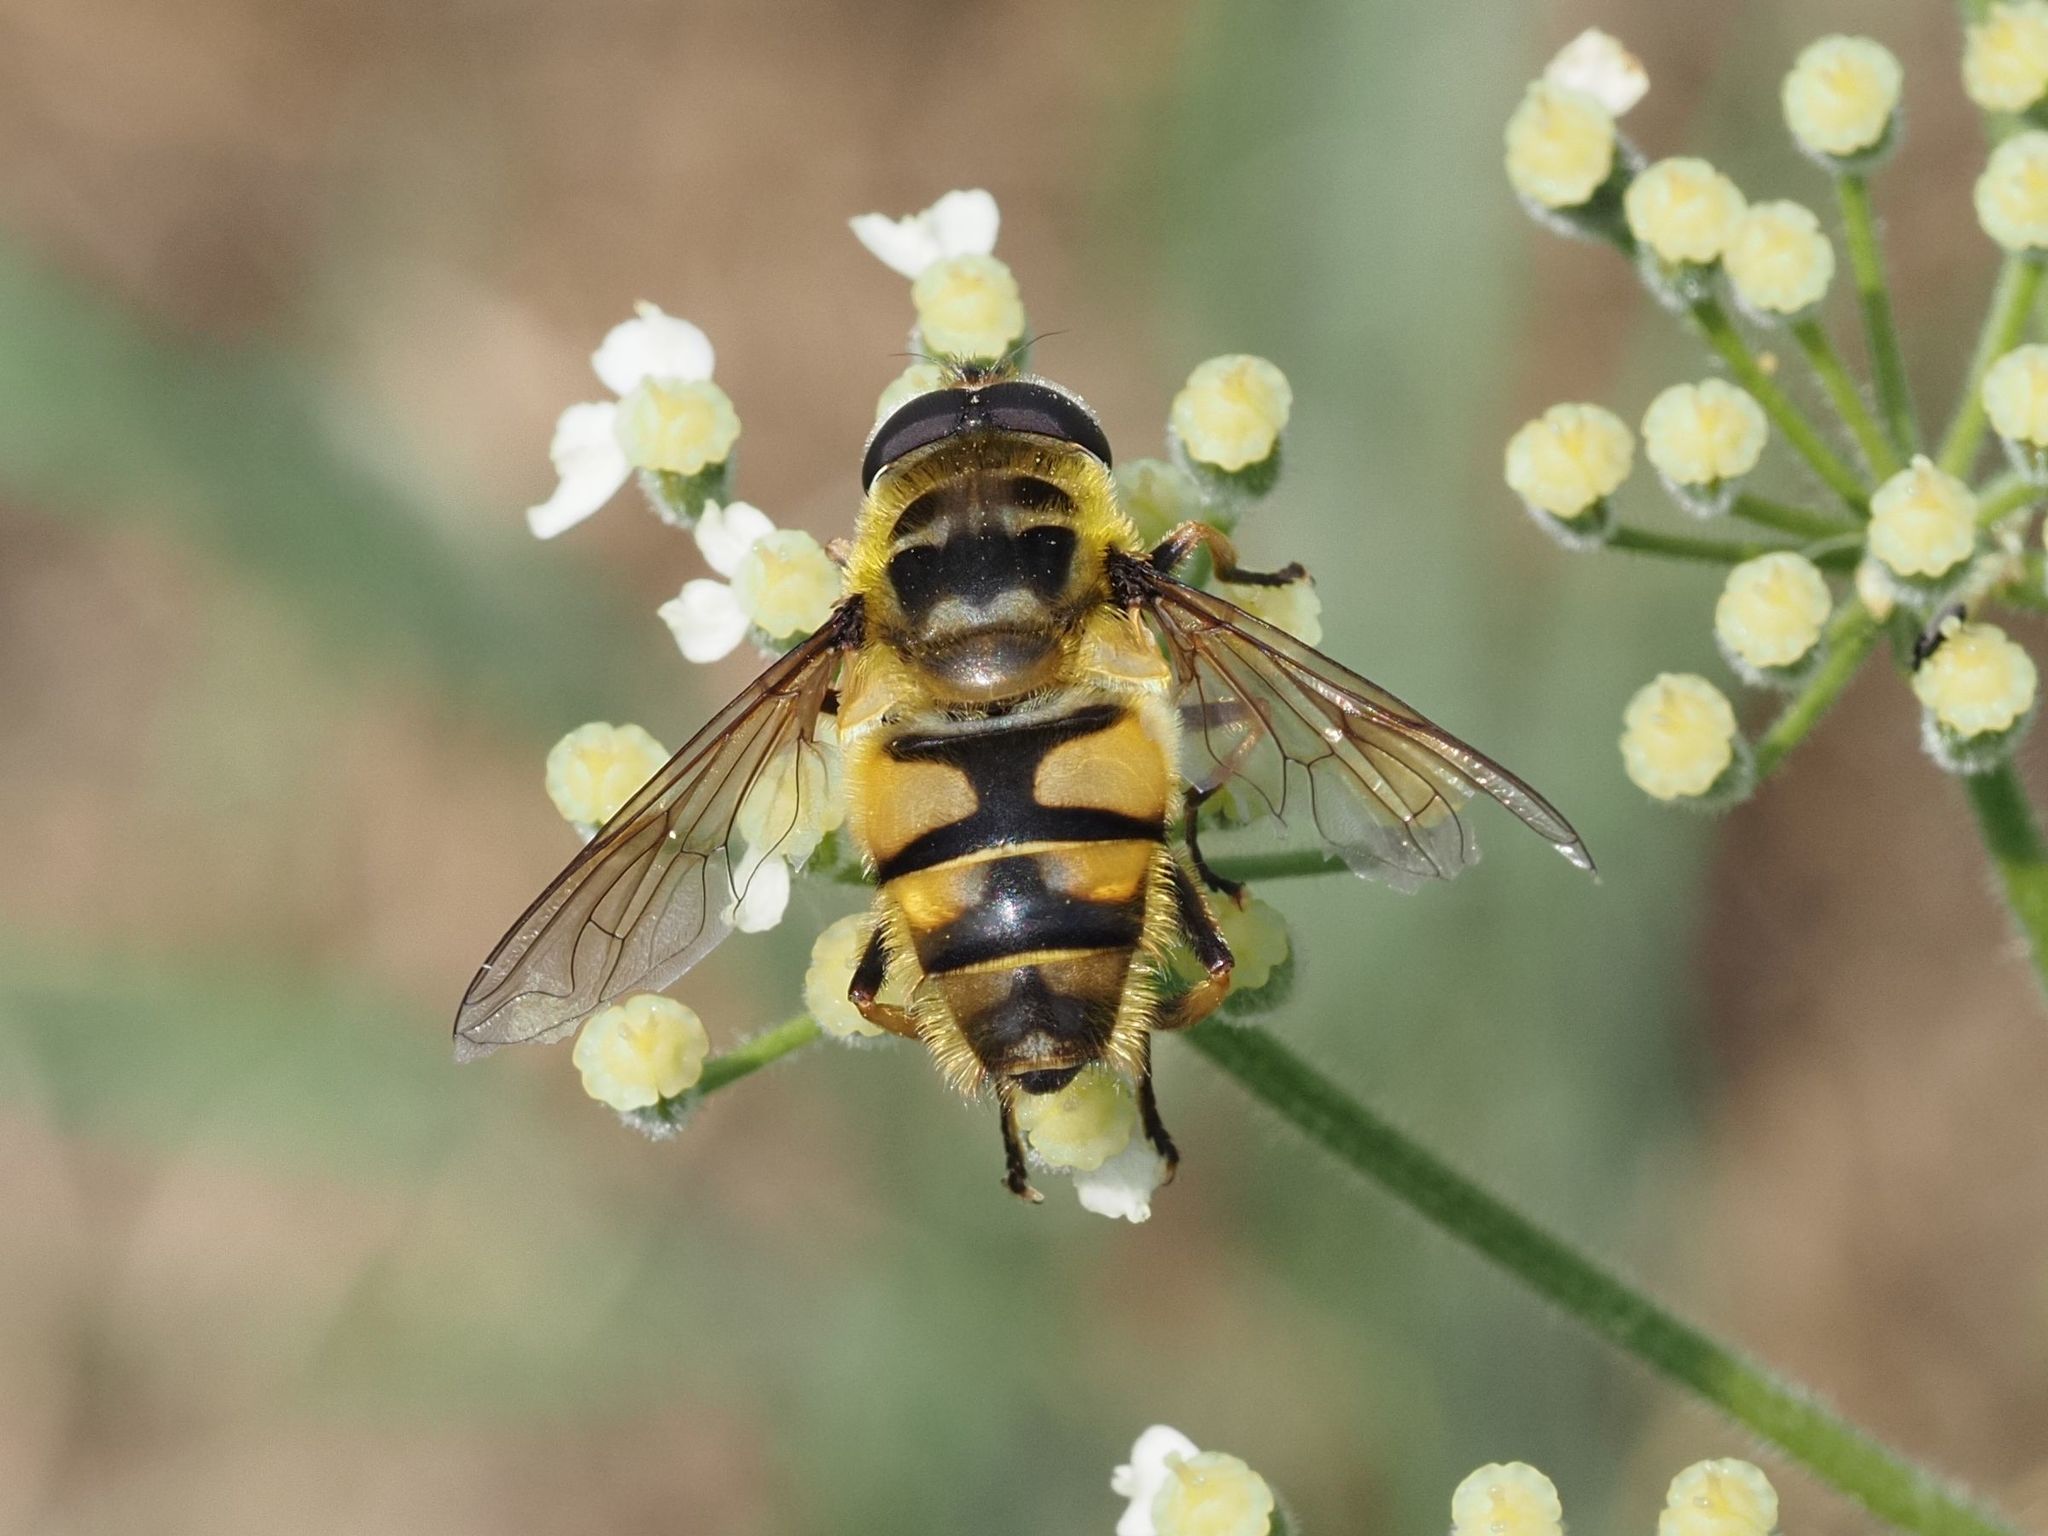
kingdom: Animalia
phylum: Arthropoda
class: Insecta
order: Diptera
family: Syrphidae
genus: Myathropa
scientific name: Myathropa florea
